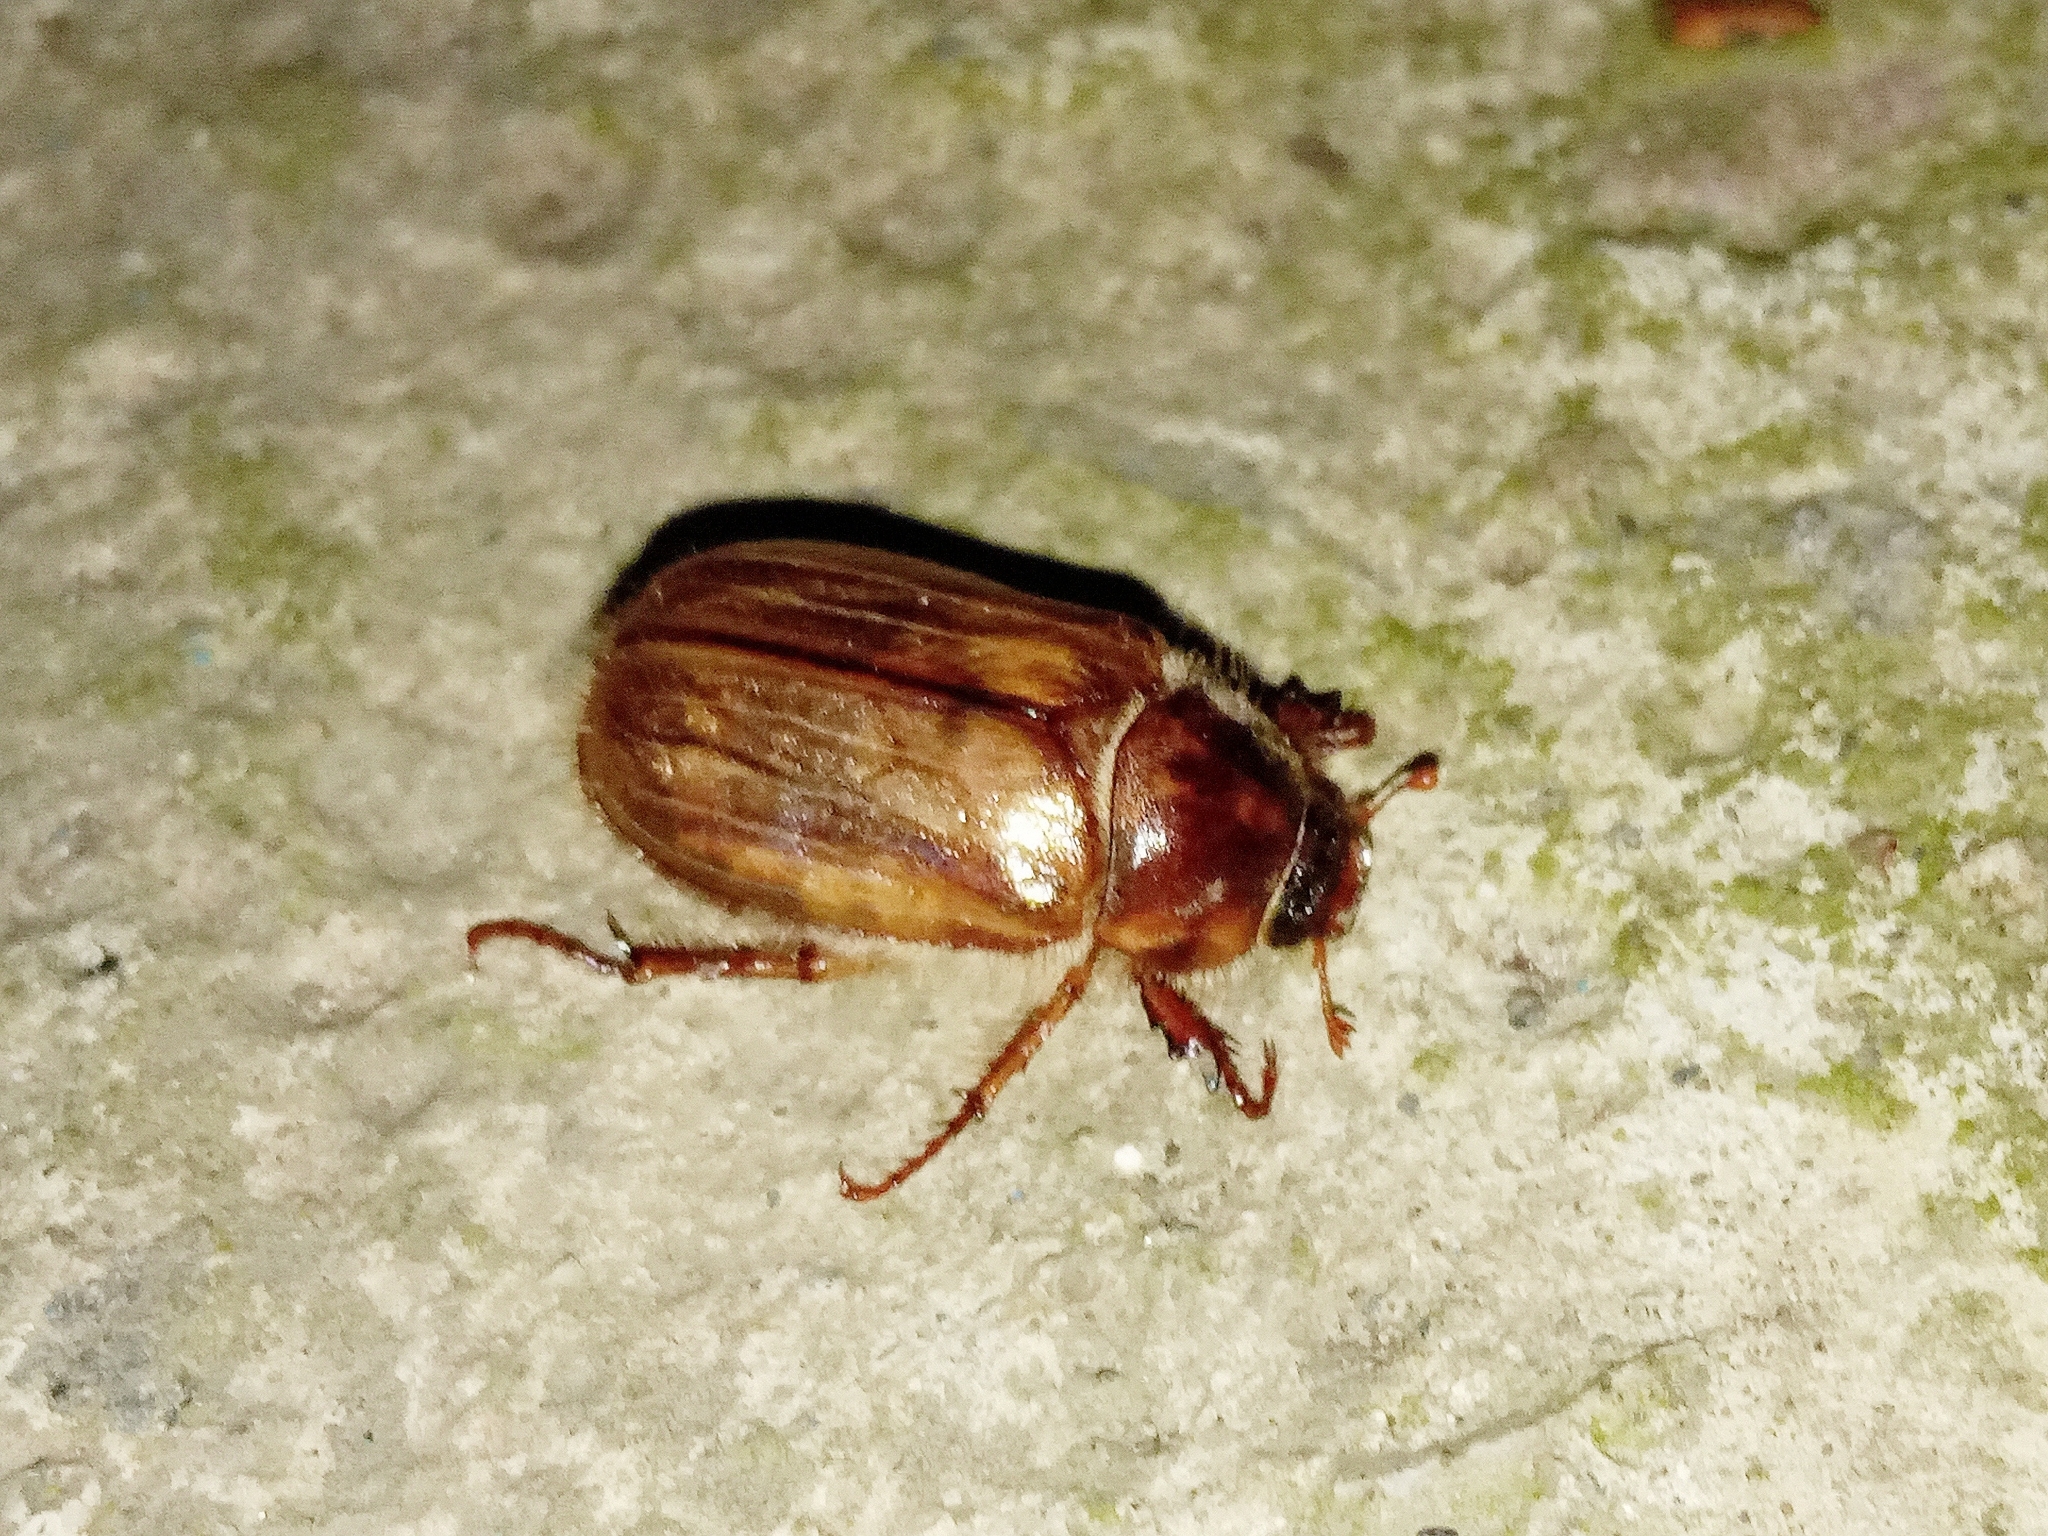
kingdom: Animalia
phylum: Arthropoda
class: Insecta
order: Coleoptera
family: Scarabaeidae
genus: Amphimallon
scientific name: Amphimallon solstitiale
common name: Summer chafer
